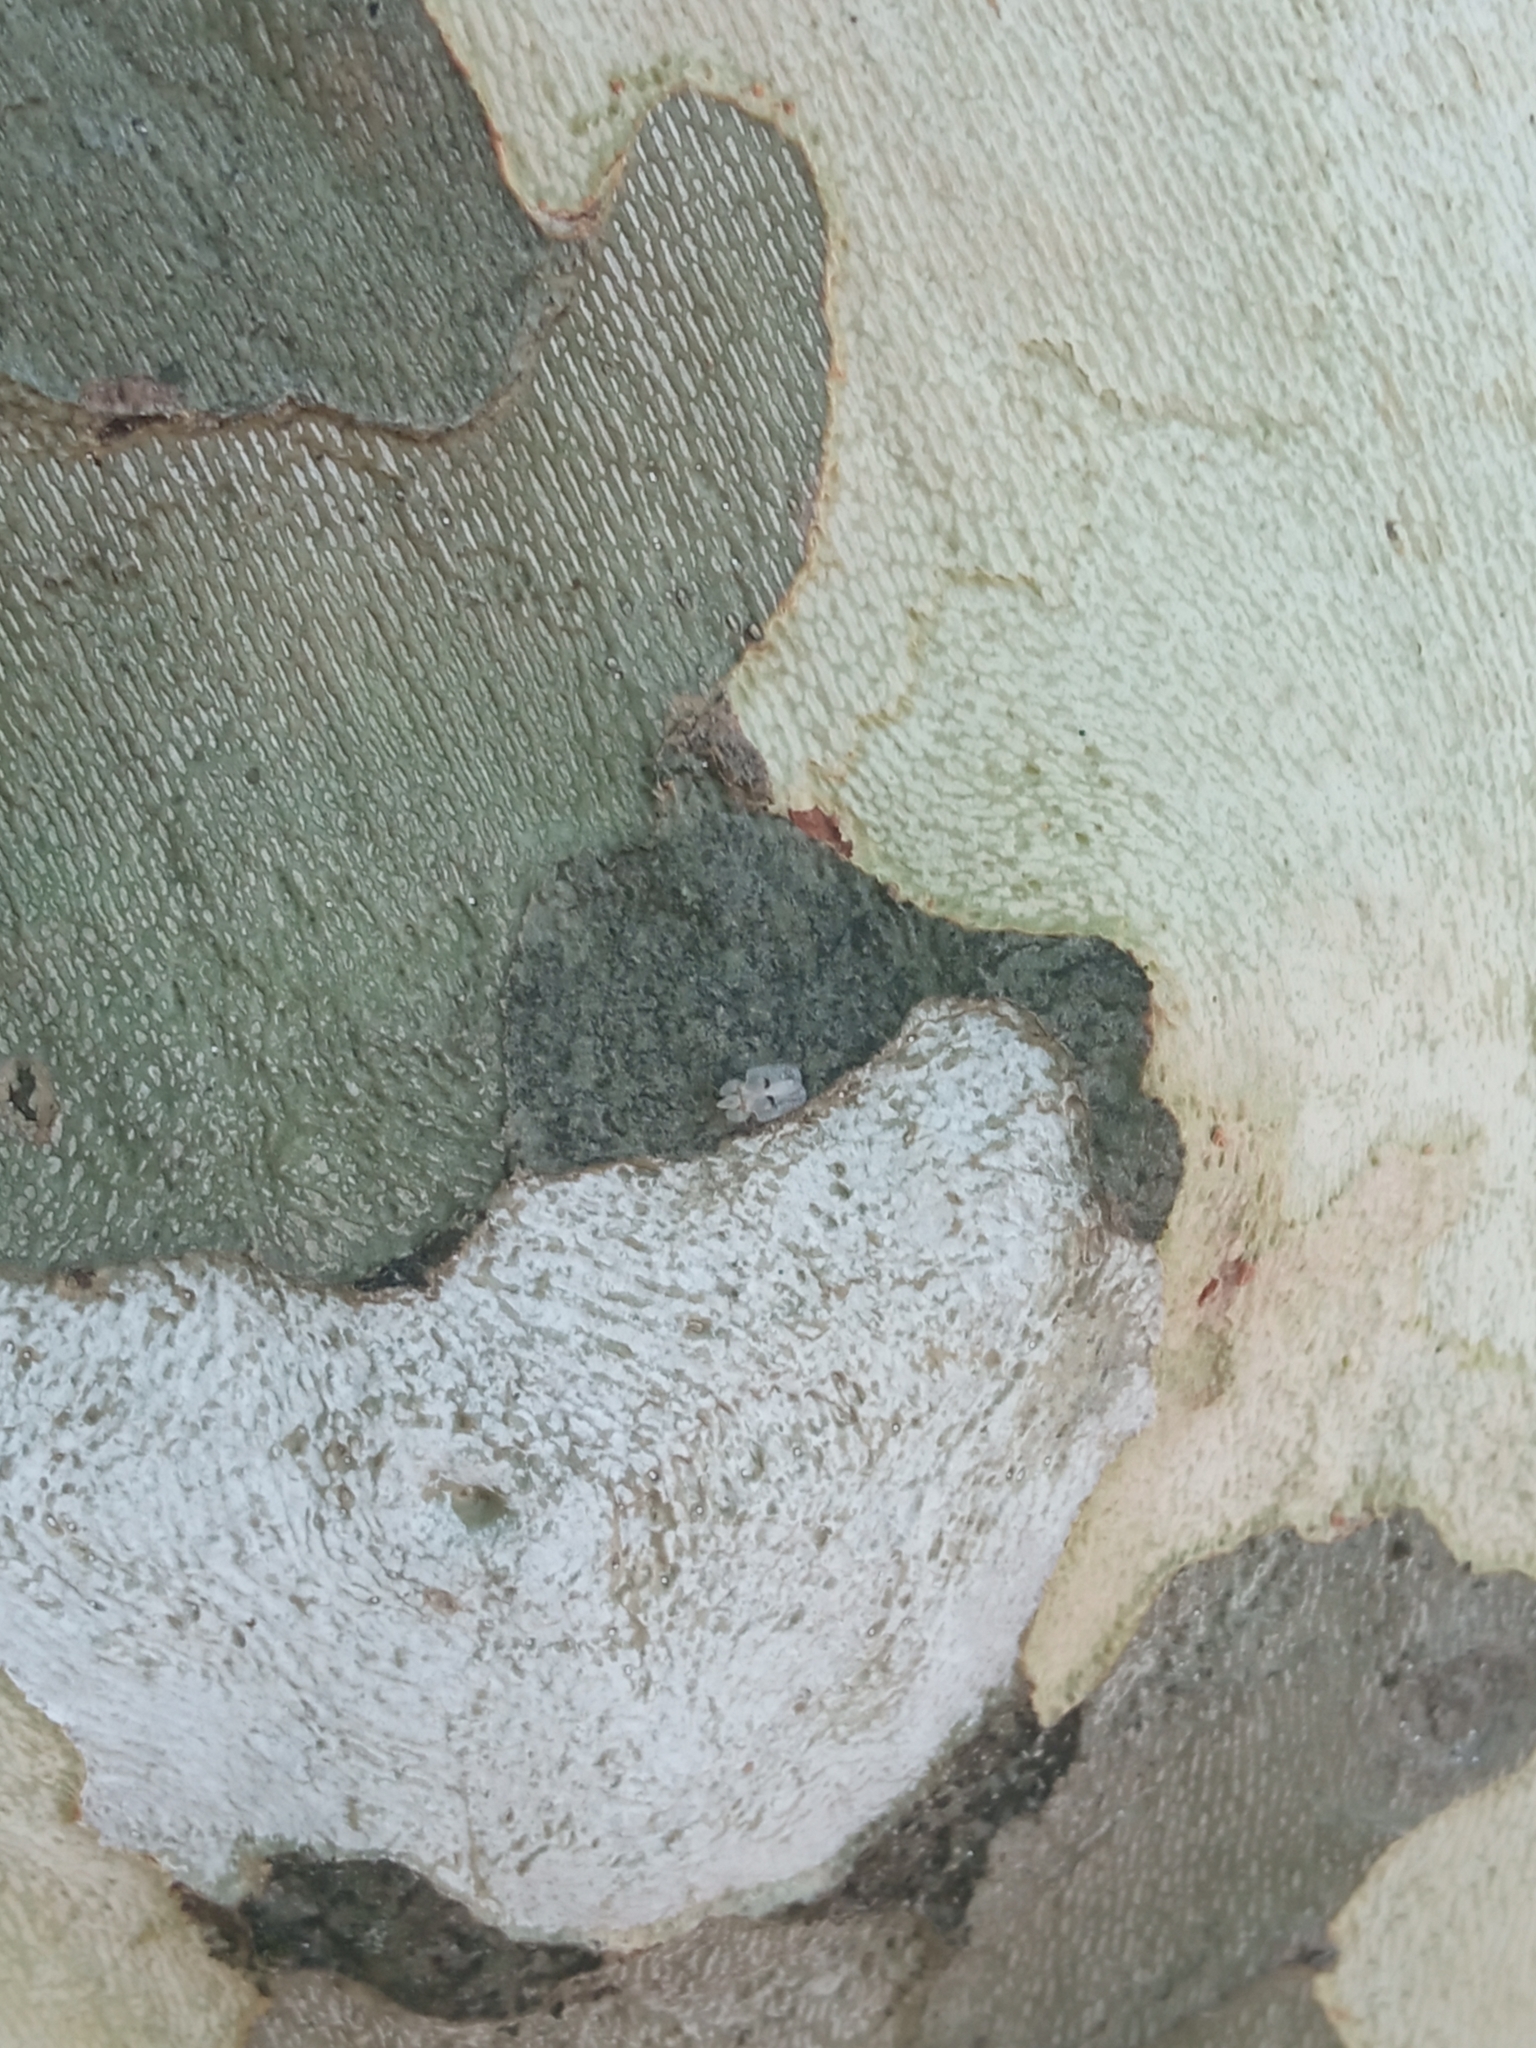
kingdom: Animalia
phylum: Arthropoda
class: Insecta
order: Hemiptera
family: Tingidae
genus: Corythucha
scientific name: Corythucha ciliata
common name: Sycamore lace bug
